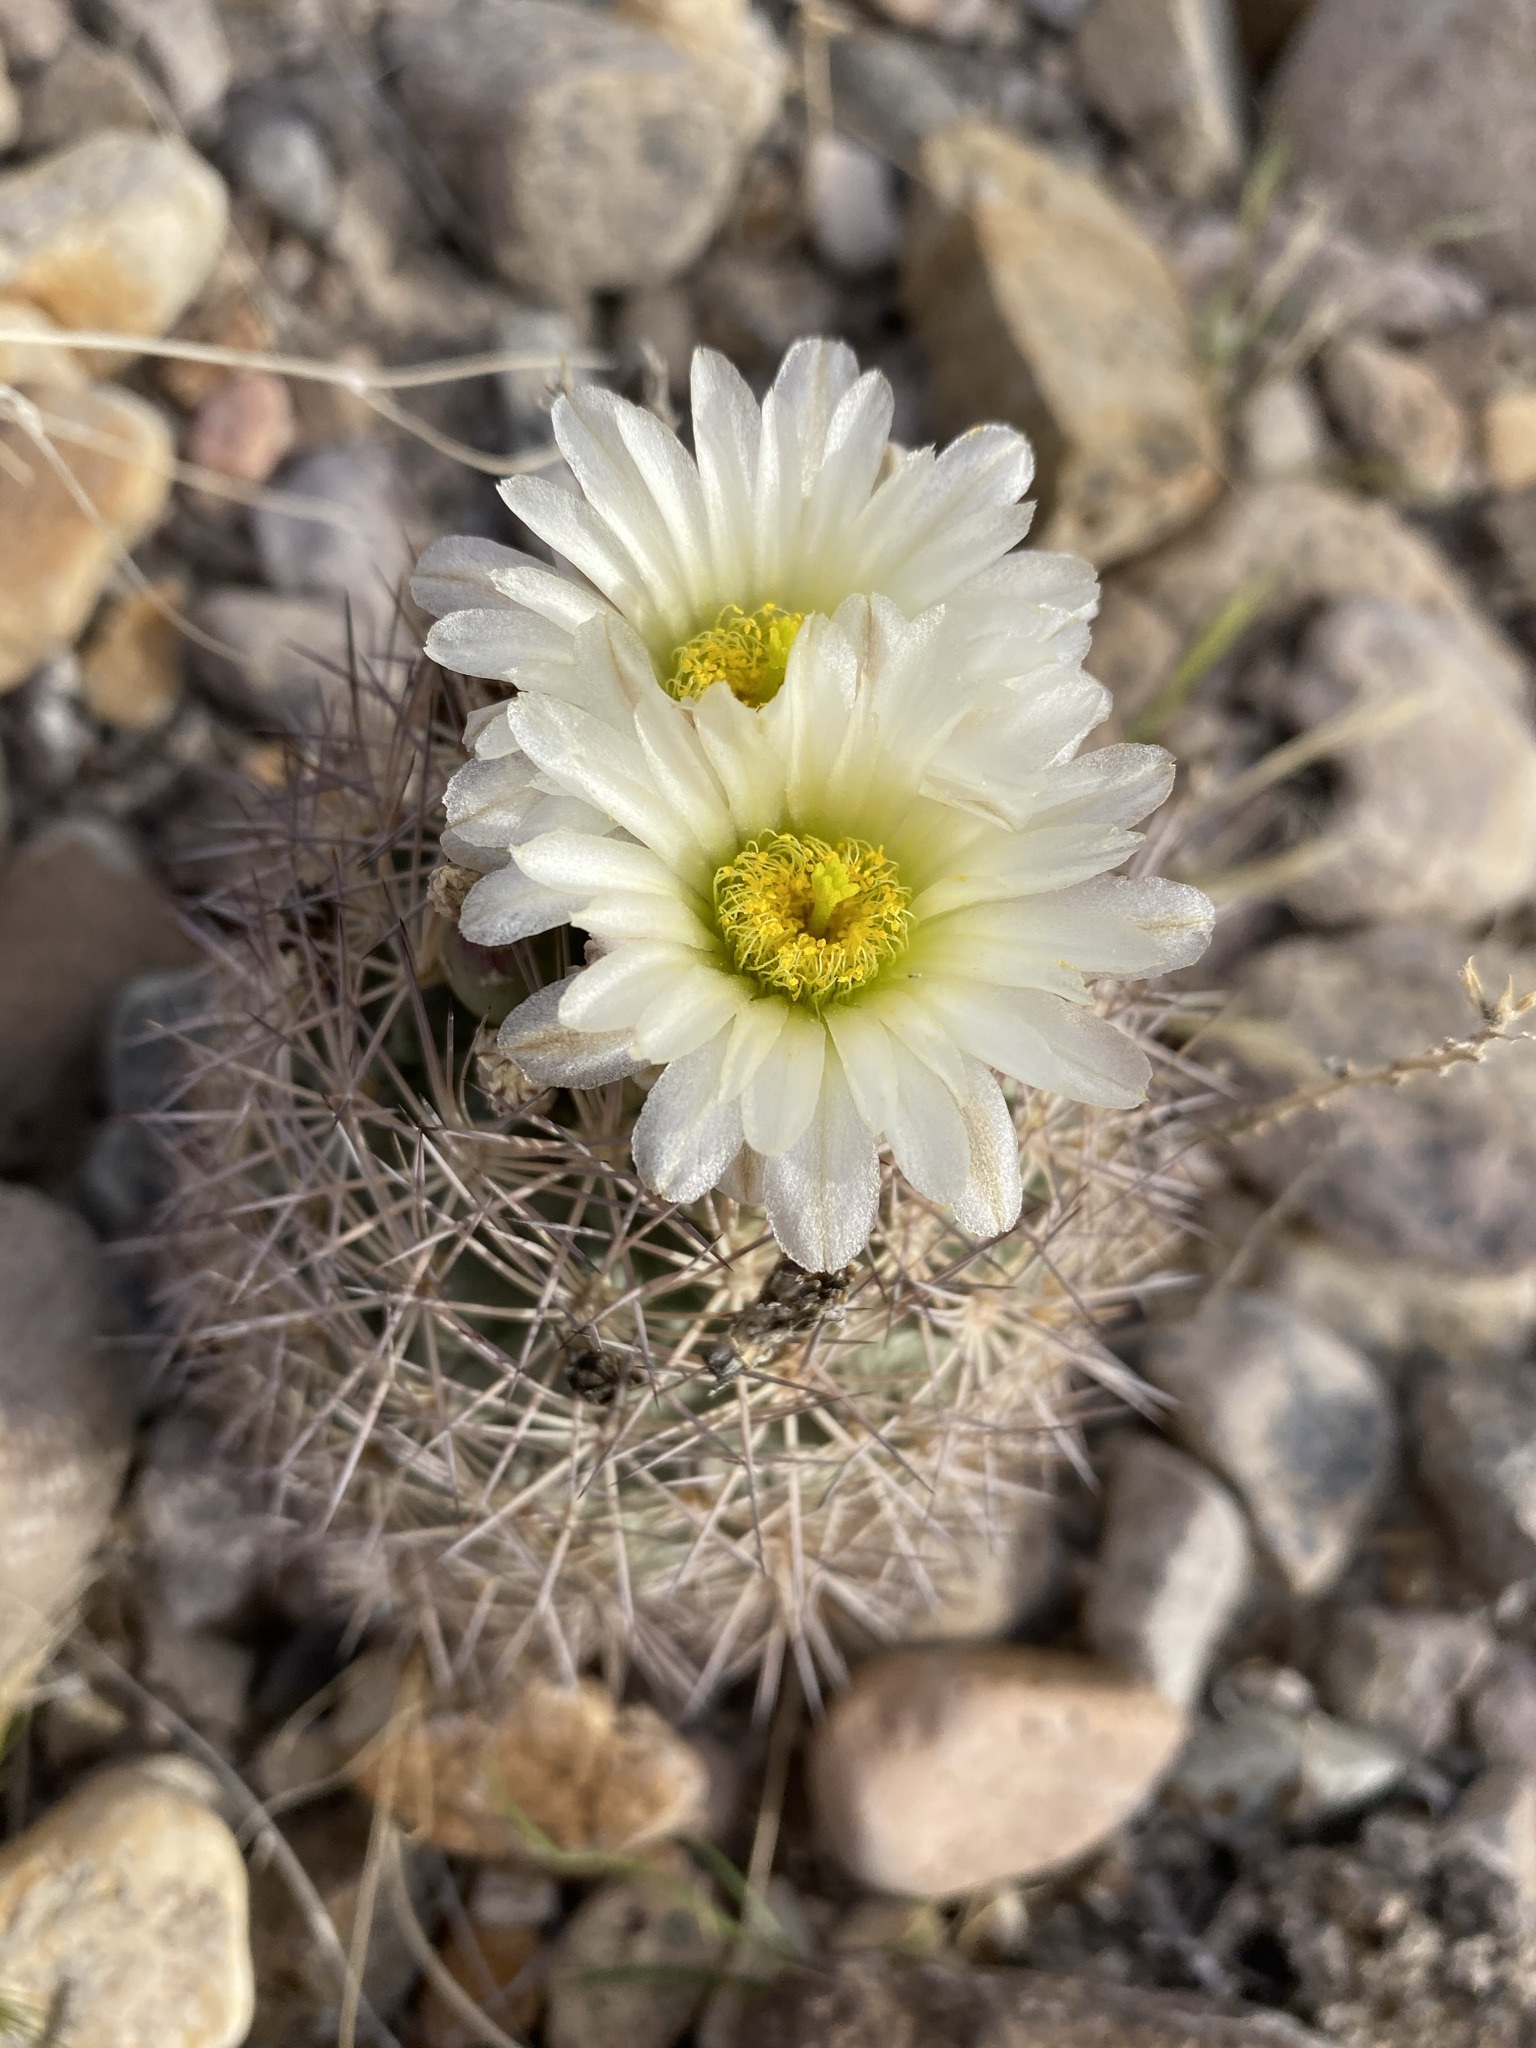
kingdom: Plantae
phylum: Tracheophyta
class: Magnoliopsida
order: Caryophyllales
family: Cactaceae
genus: Sclerocactus
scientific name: Sclerocactus warnockii
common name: Pineapple cactus
